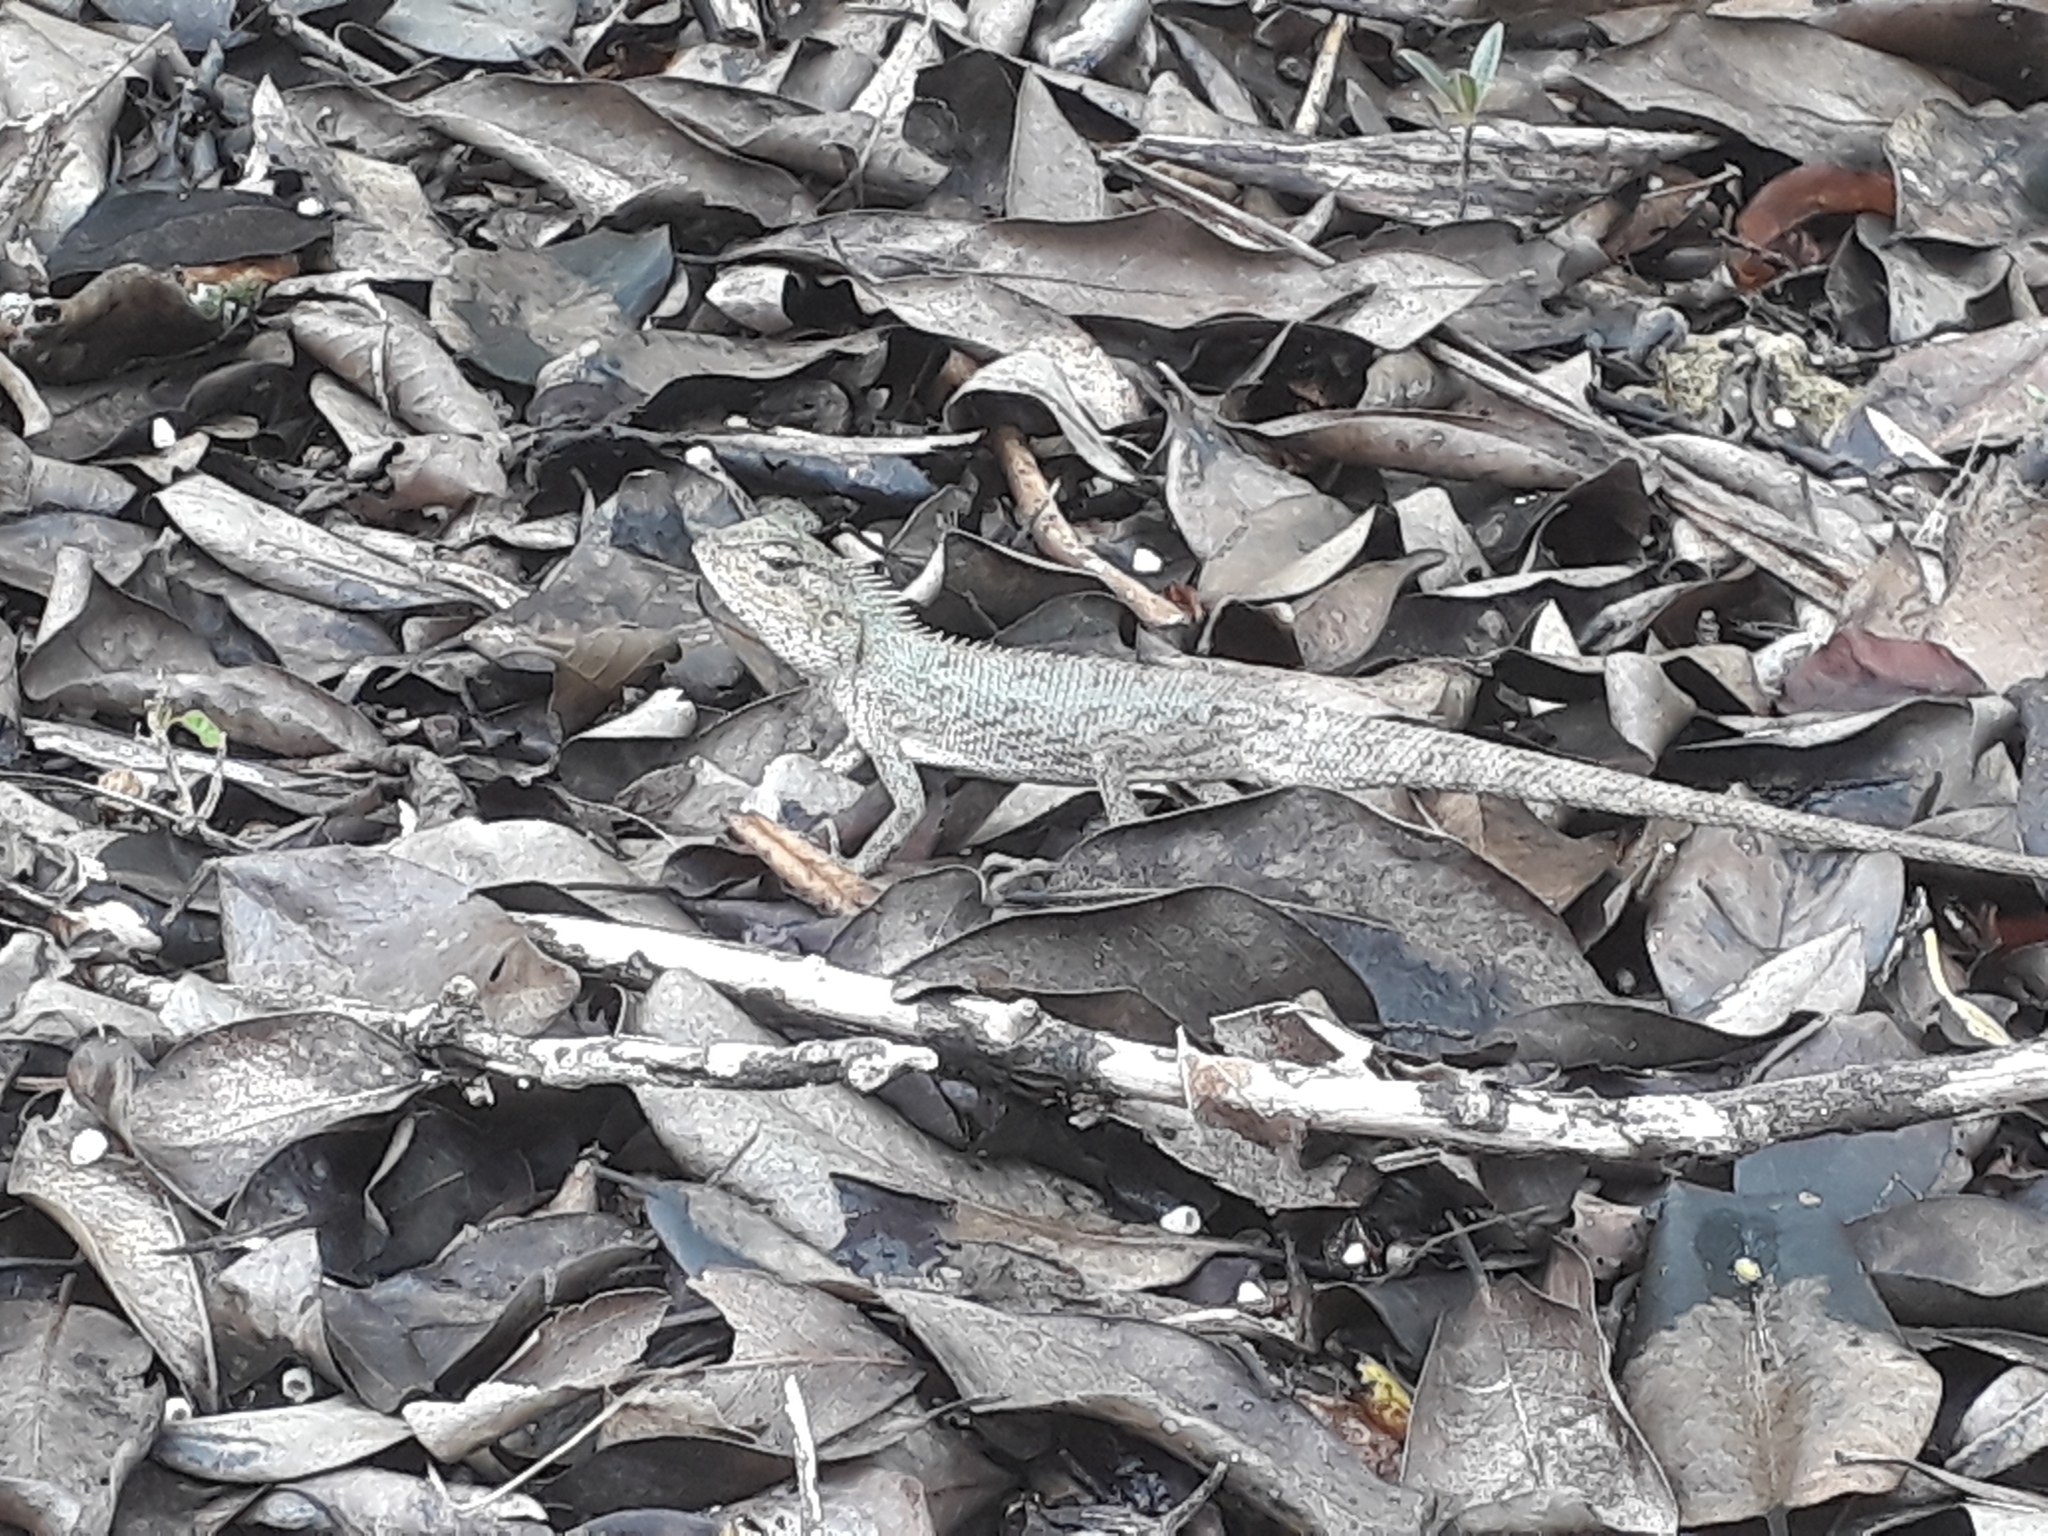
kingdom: Animalia
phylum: Chordata
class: Squamata
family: Agamidae
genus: Calotes
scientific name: Calotes versicolor
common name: Oriental garden lizard
